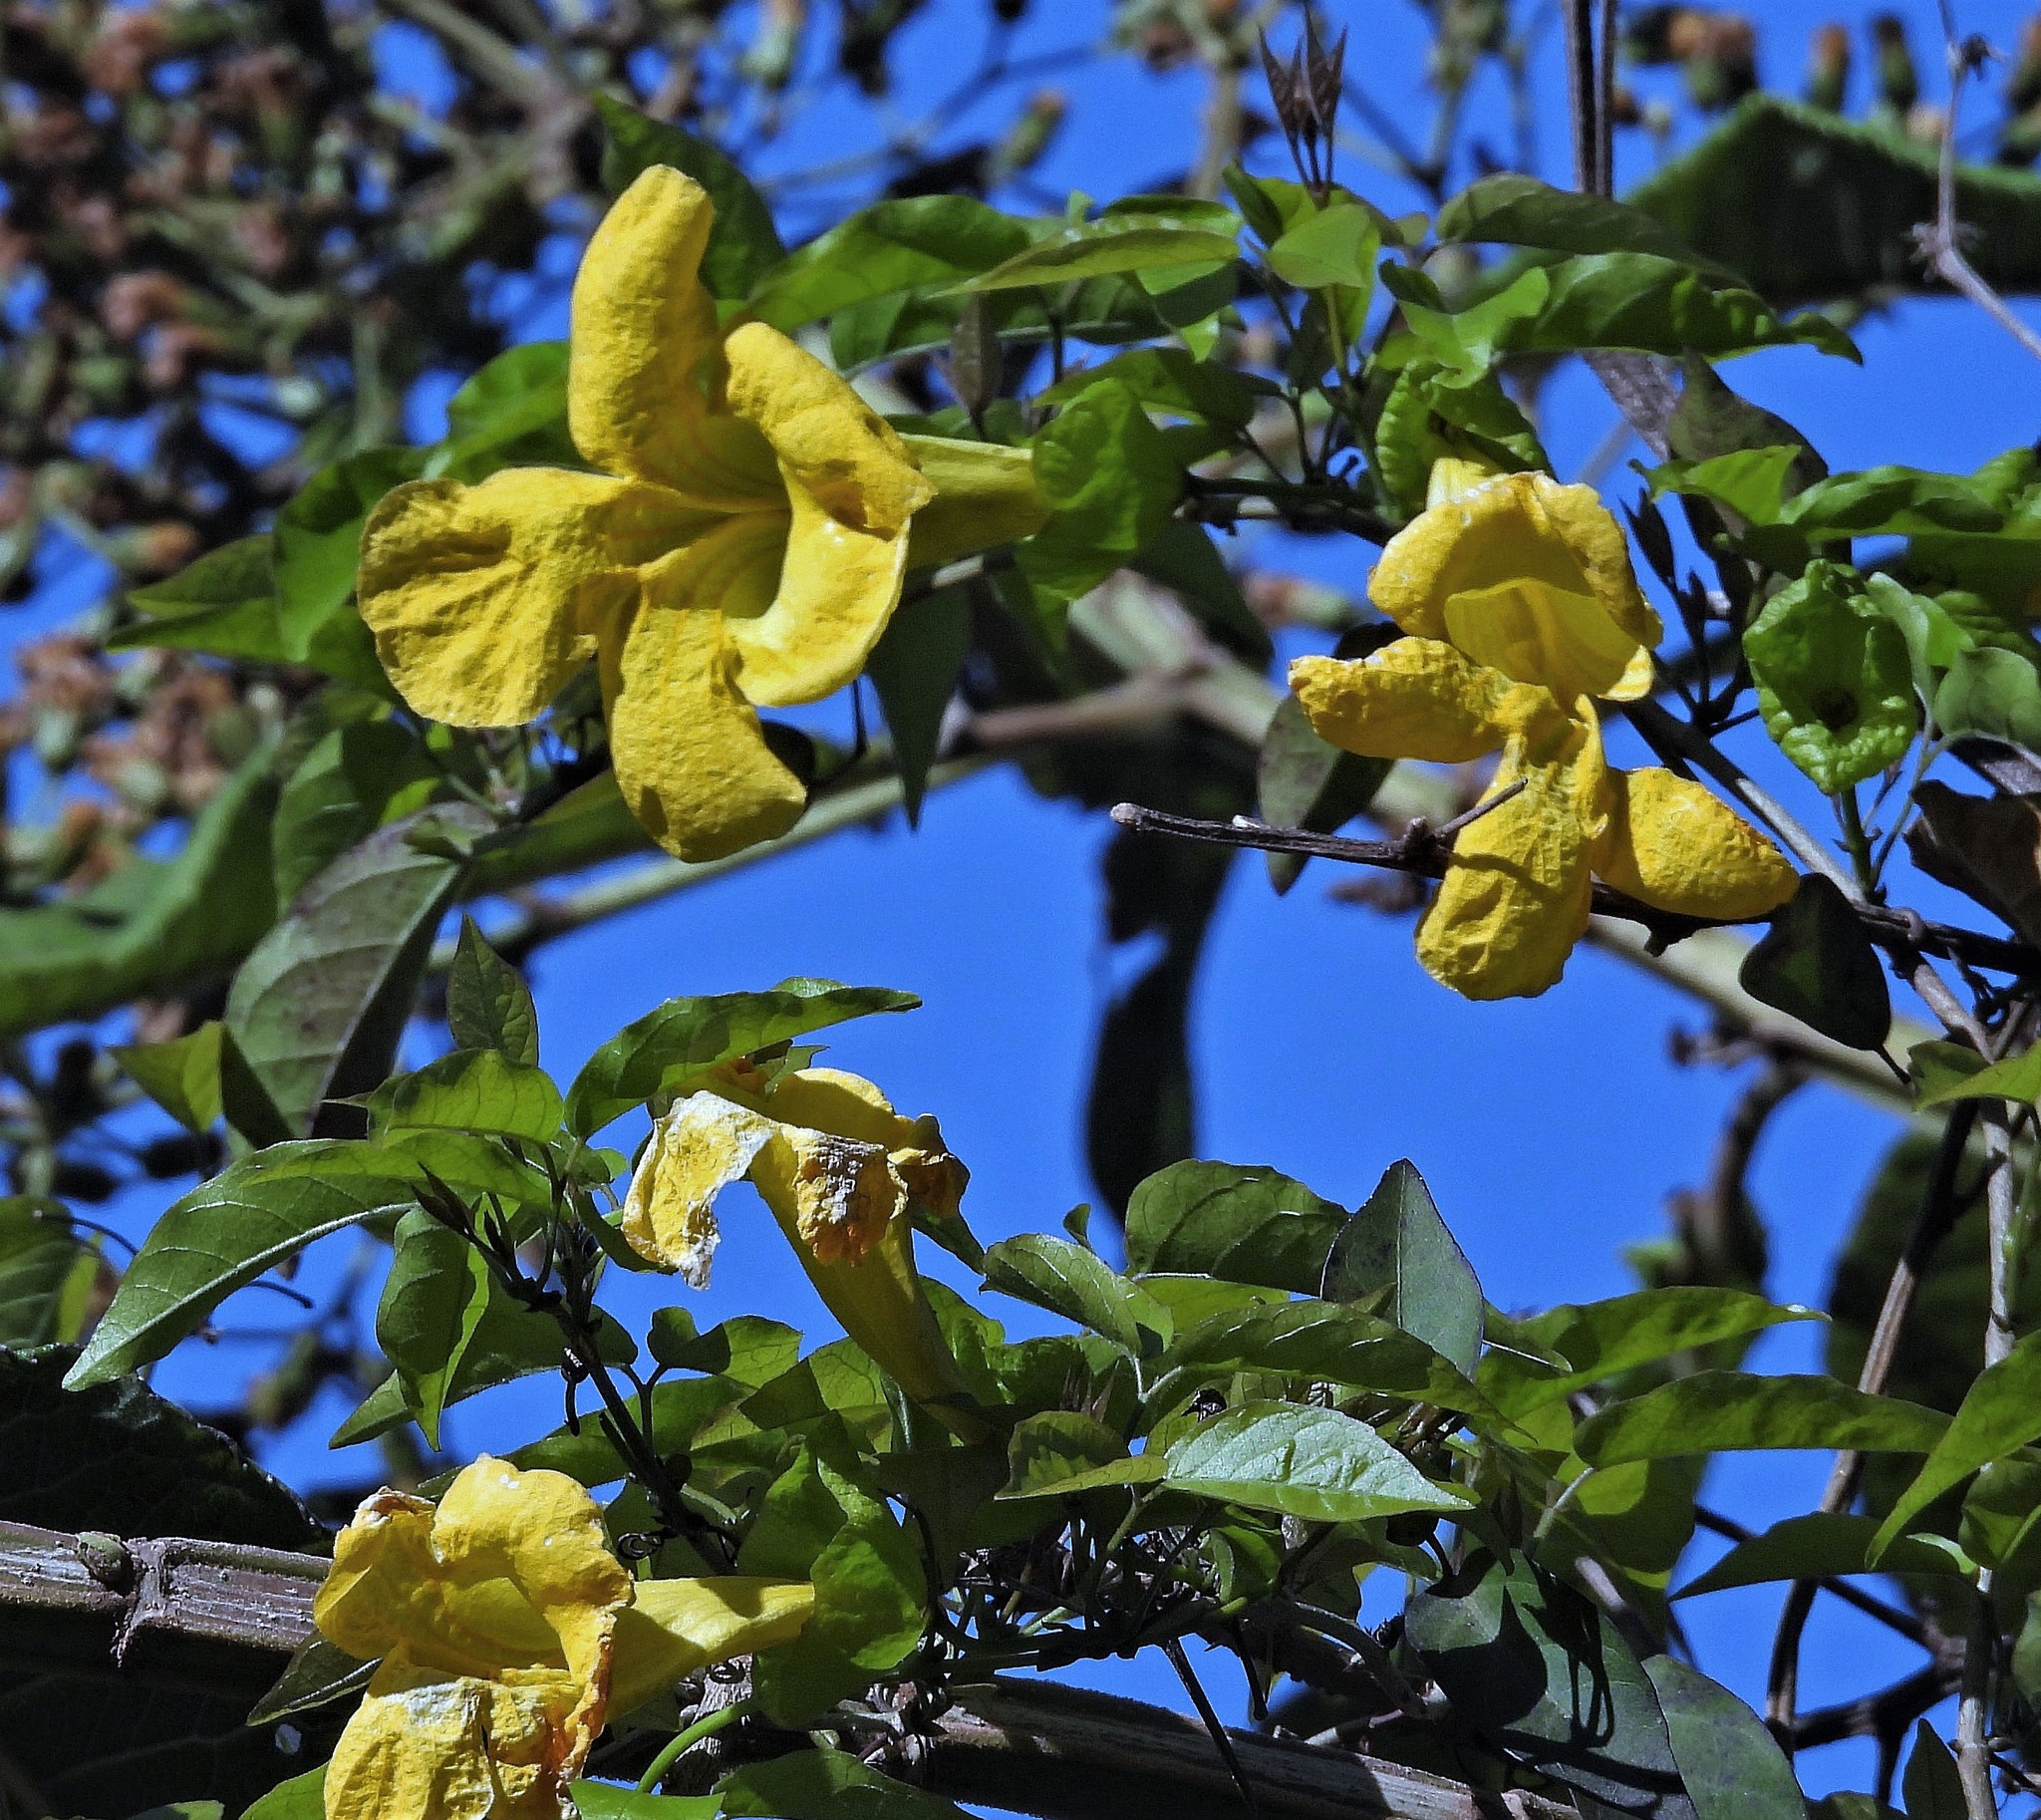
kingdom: Plantae
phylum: Tracheophyta
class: Magnoliopsida
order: Lamiales
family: Bignoniaceae
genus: Dolichandra
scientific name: Dolichandra unguis-cati
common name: Catclaw vine
